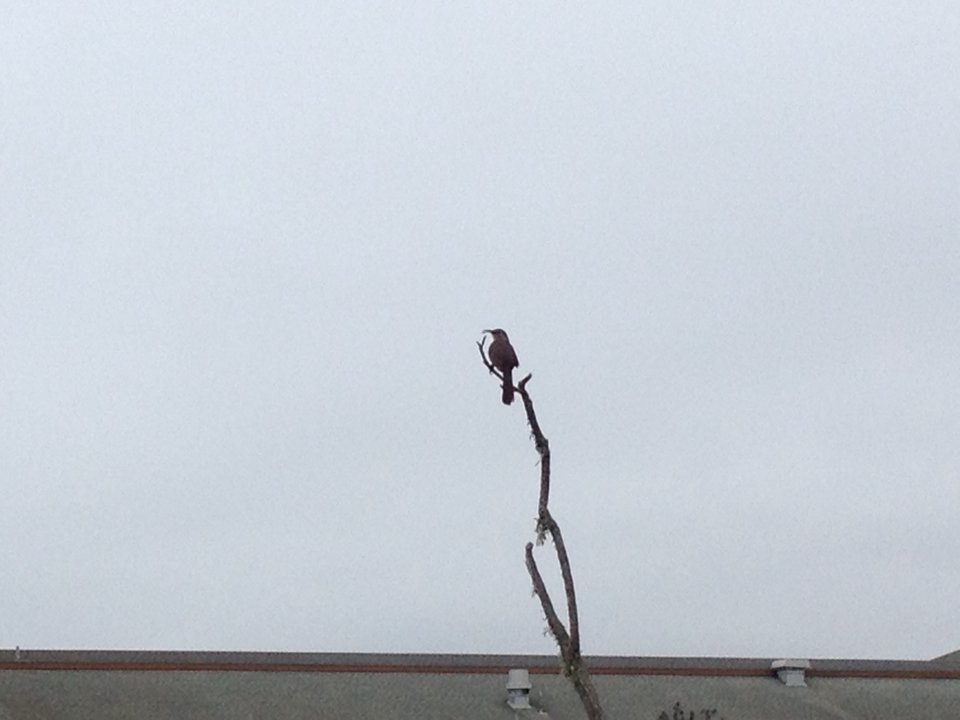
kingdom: Animalia
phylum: Chordata
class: Aves
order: Passeriformes
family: Mimidae
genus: Toxostoma
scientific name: Toxostoma redivivum
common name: California thrasher
